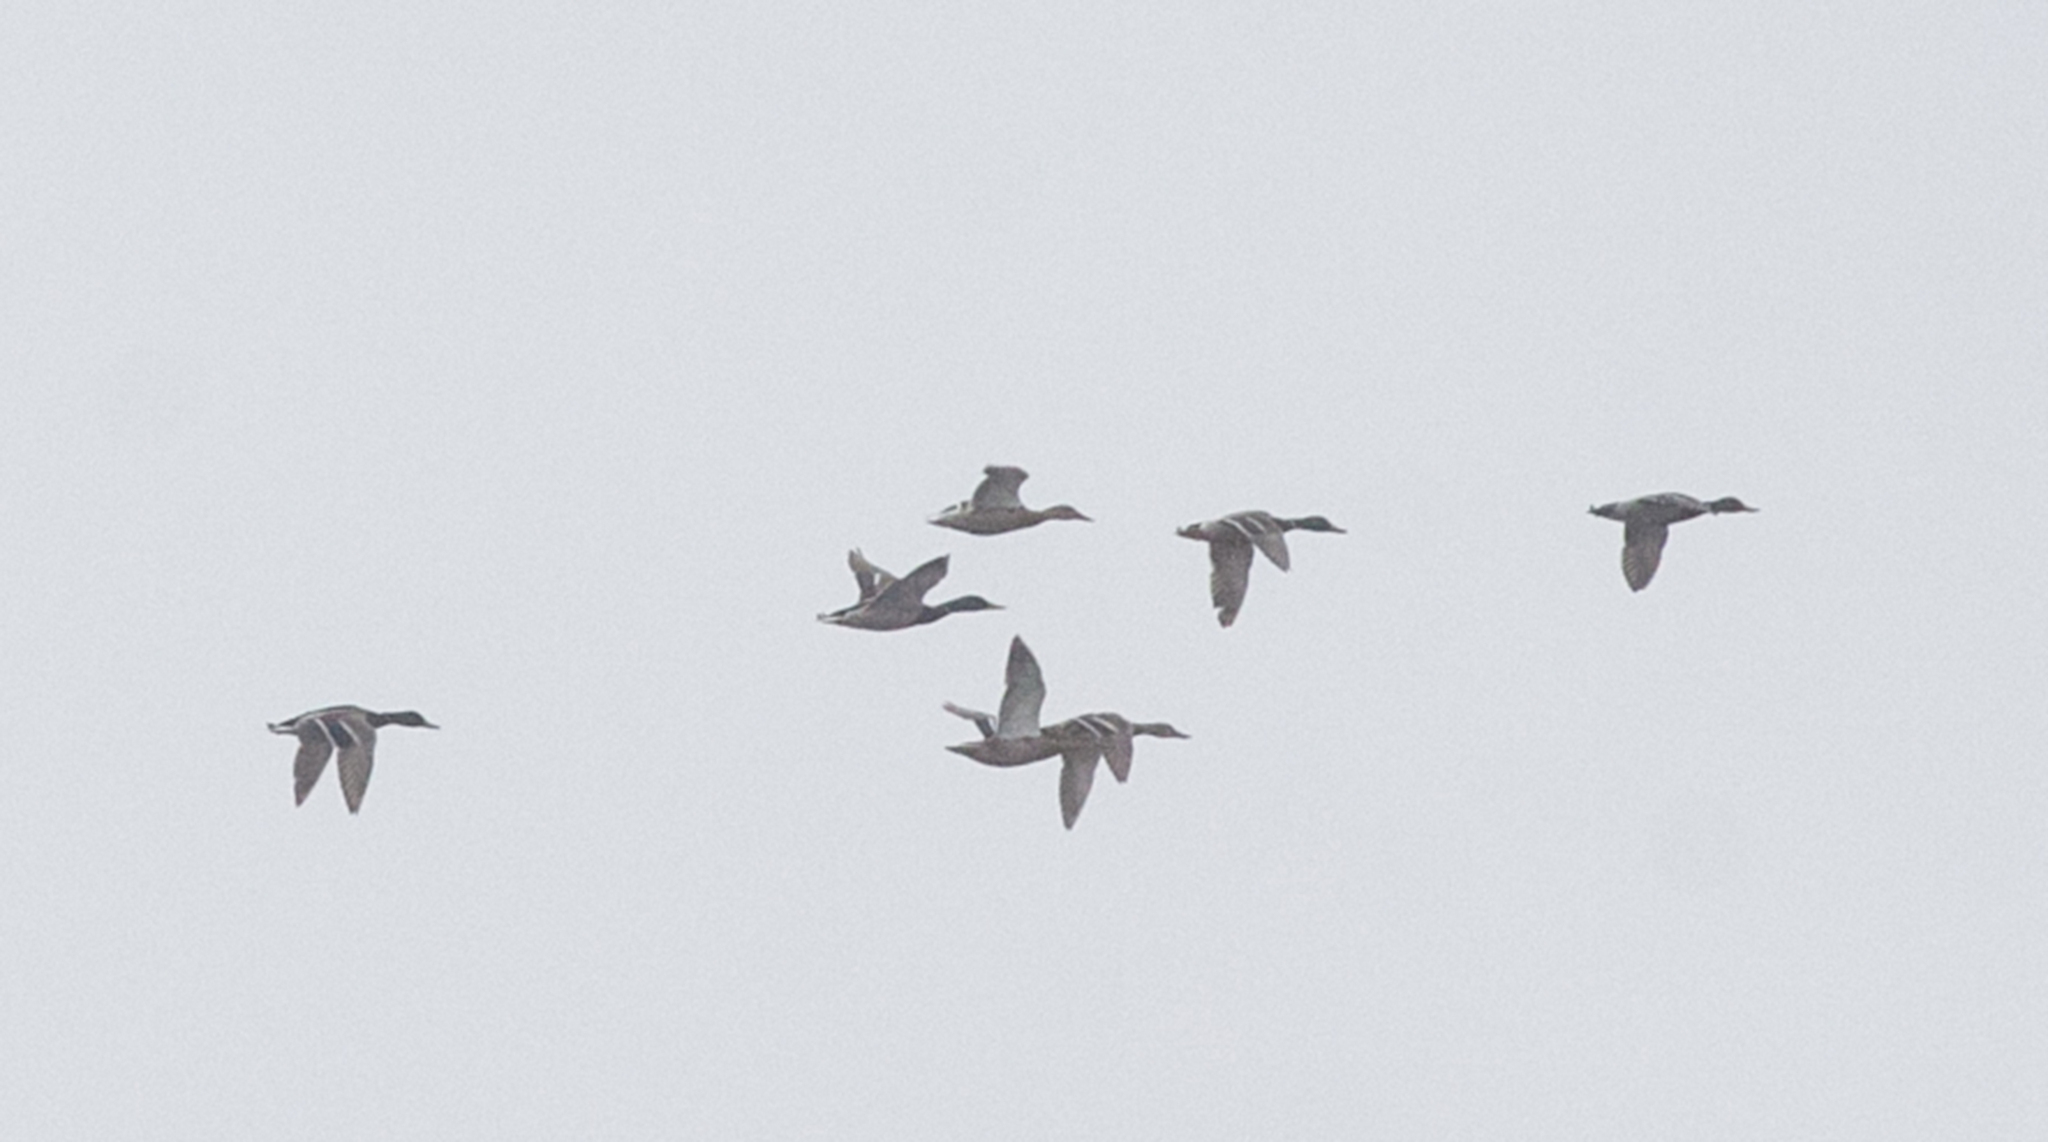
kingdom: Animalia
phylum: Chordata
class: Aves
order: Anseriformes
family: Anatidae
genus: Anas
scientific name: Anas platyrhynchos
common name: Mallard
